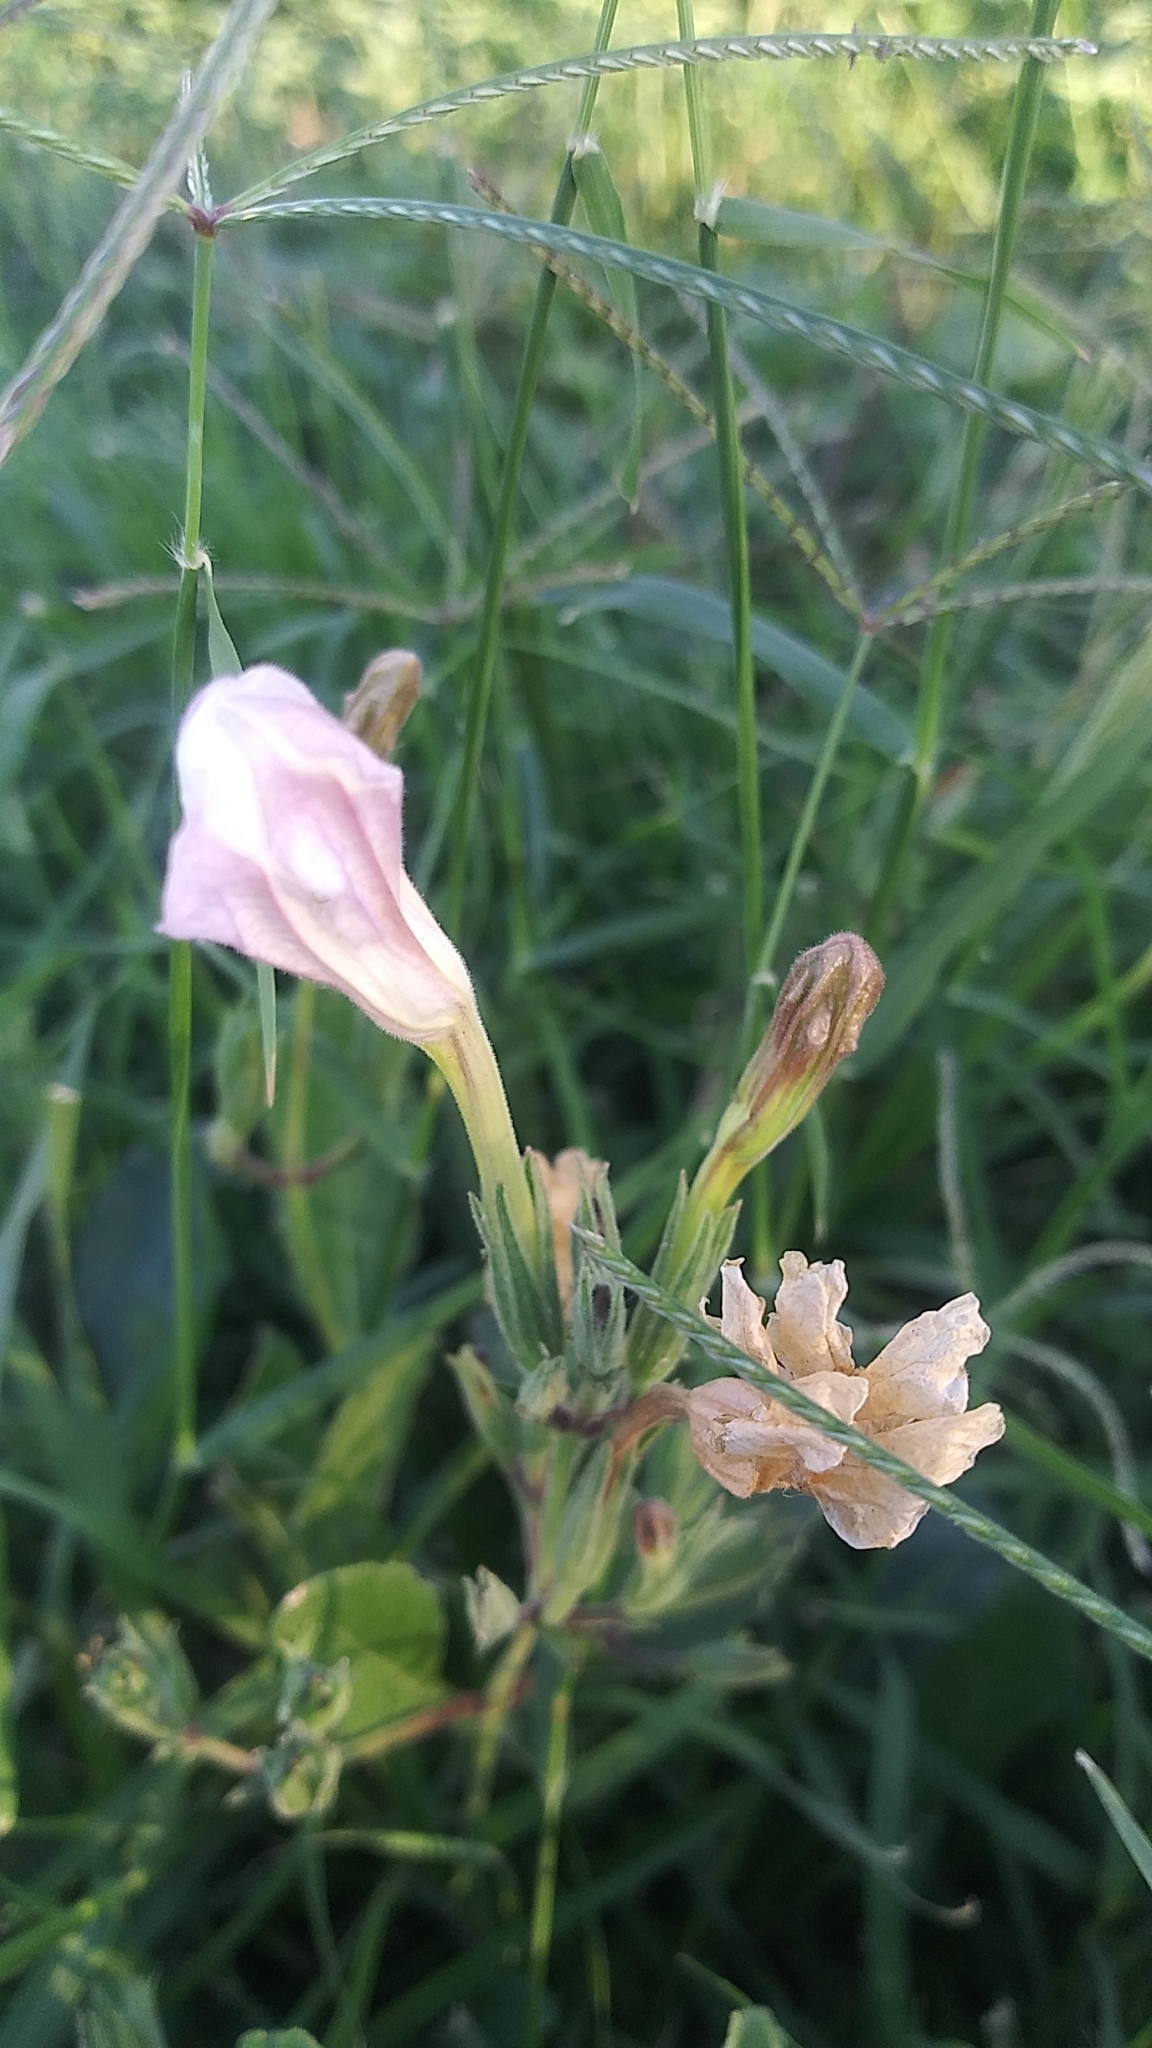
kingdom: Plantae
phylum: Tracheophyta
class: Magnoliopsida
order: Lamiales
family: Acanthaceae
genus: Ruellia
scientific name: Ruellia metziae
